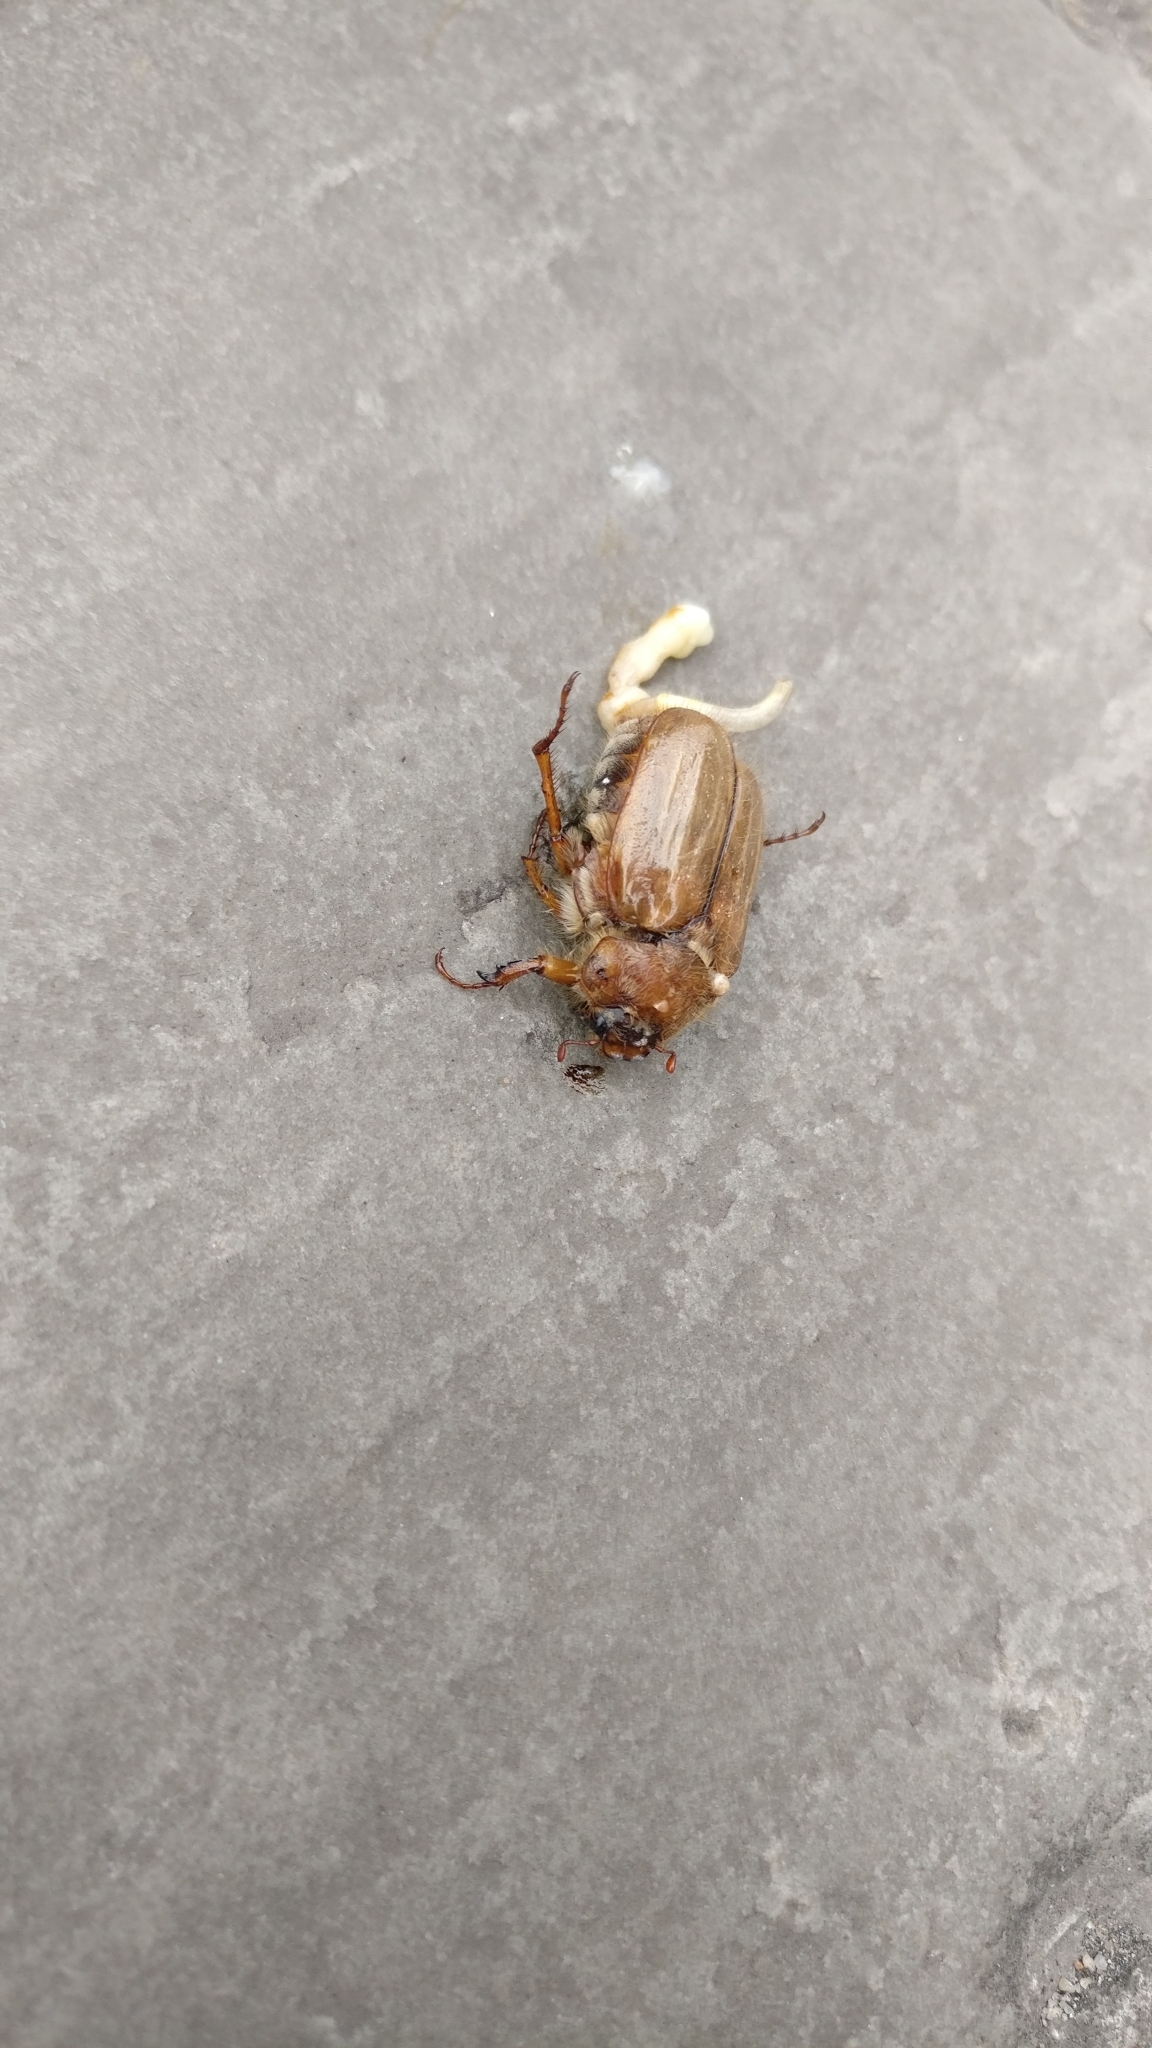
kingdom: Animalia
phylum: Arthropoda
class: Insecta
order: Coleoptera
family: Scarabaeidae
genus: Amphimallon
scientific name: Amphimallon solstitiale
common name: Summer chafer
